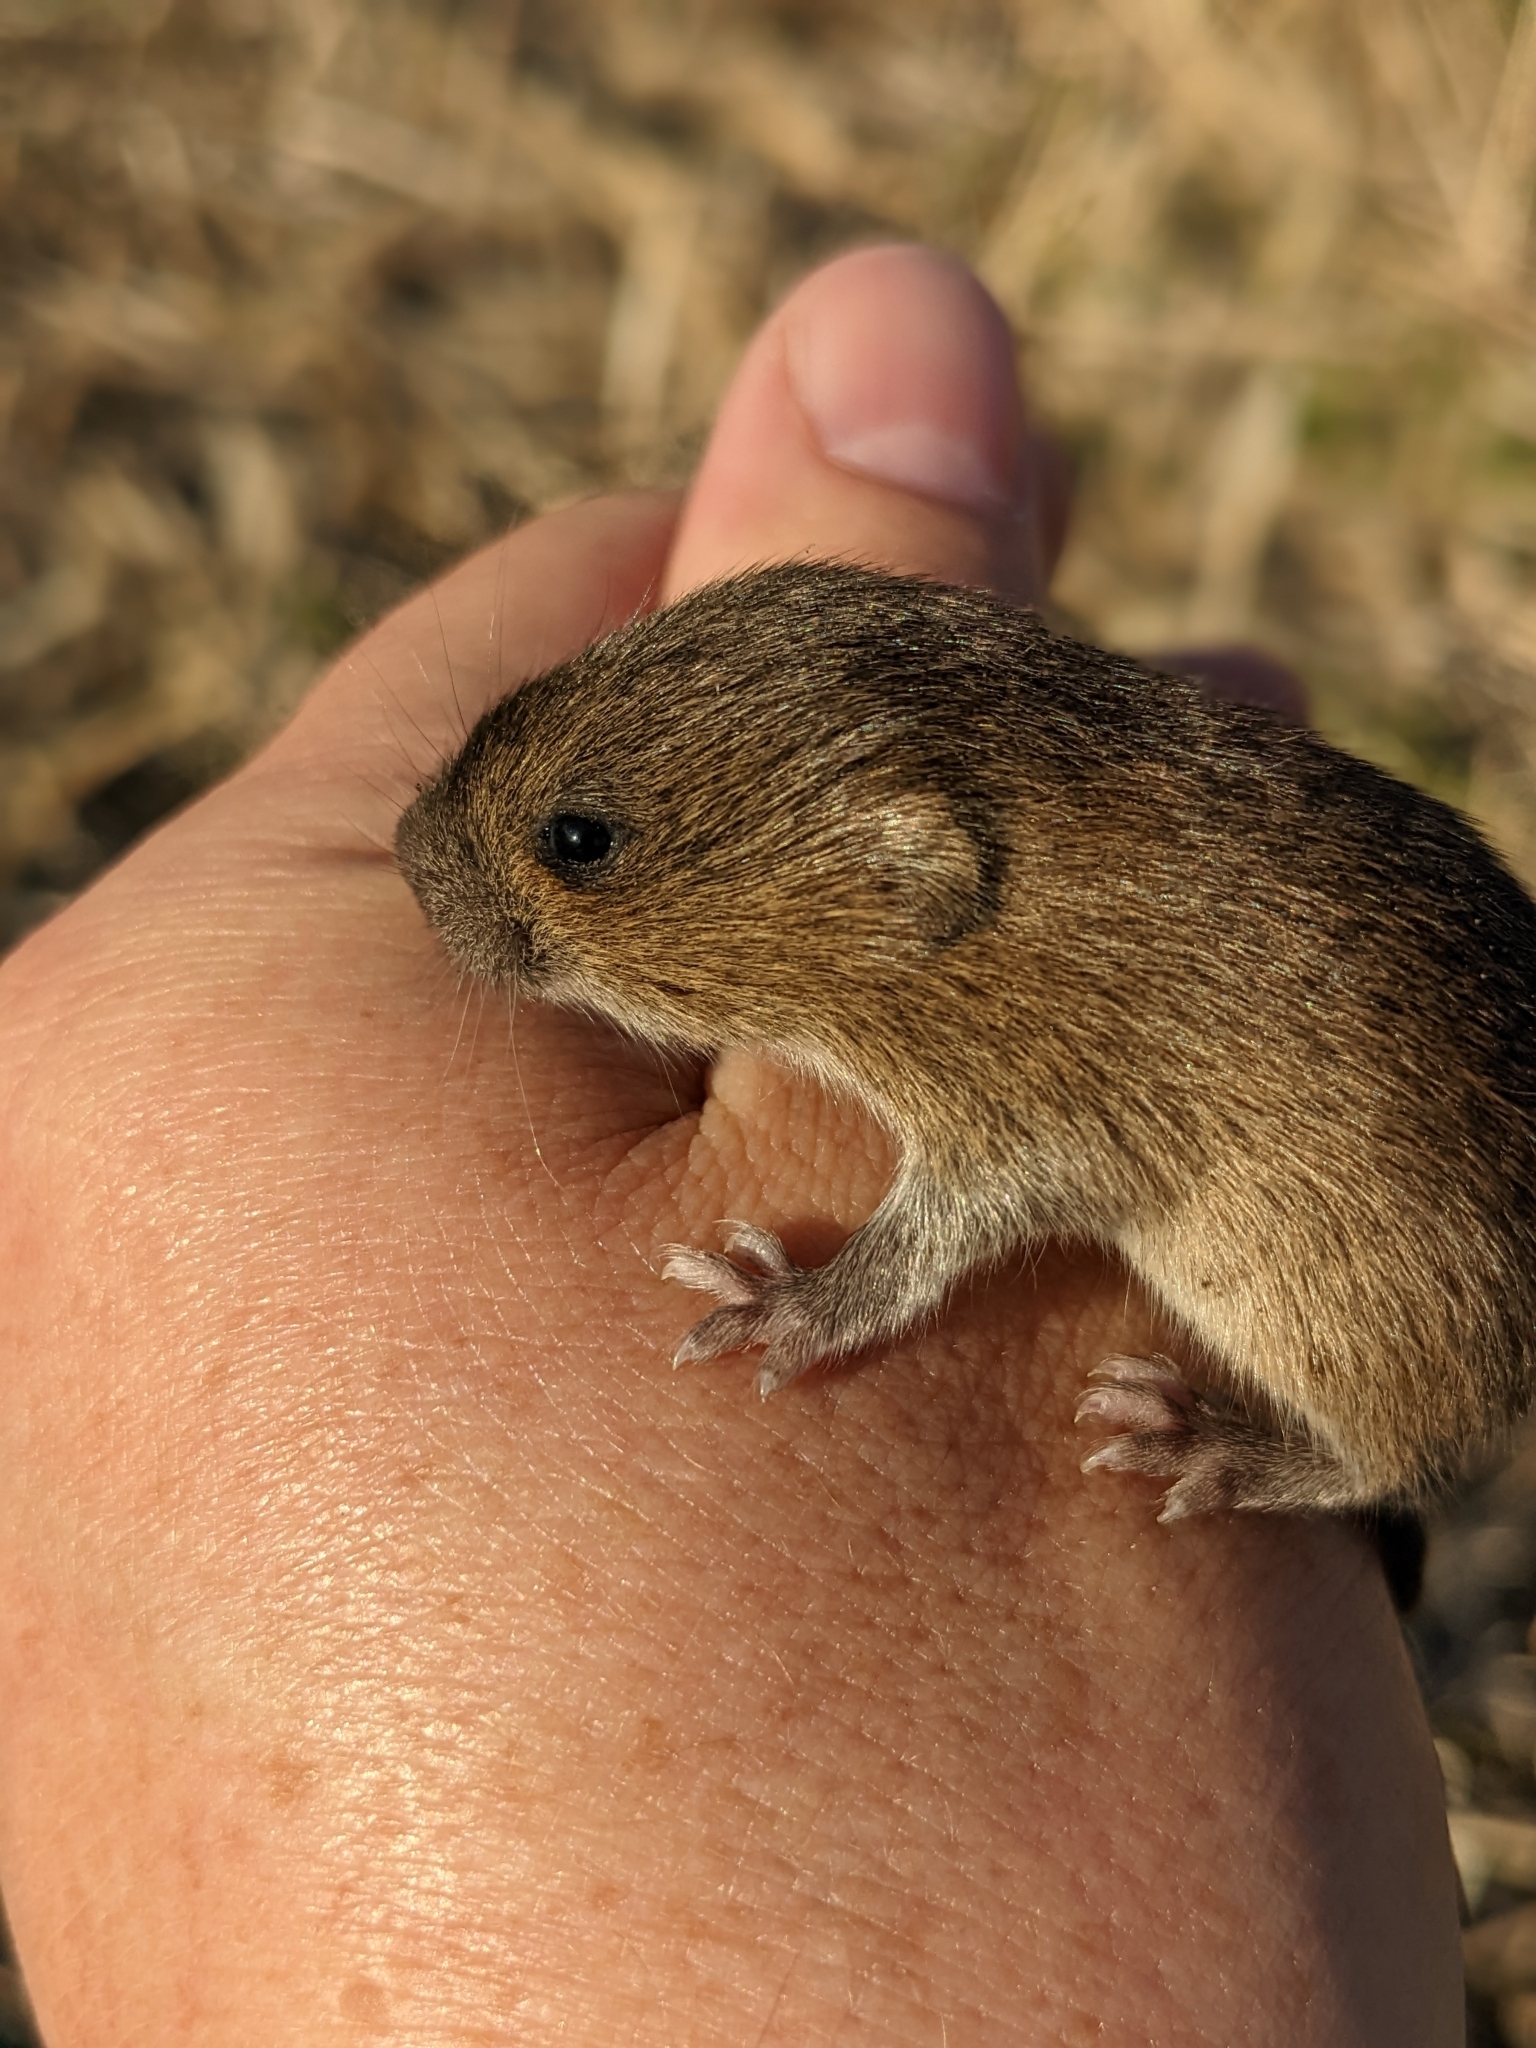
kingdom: Animalia
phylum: Chordata
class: Mammalia
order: Rodentia
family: Cricetidae
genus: Microtus
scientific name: Microtus californicus
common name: California vole
